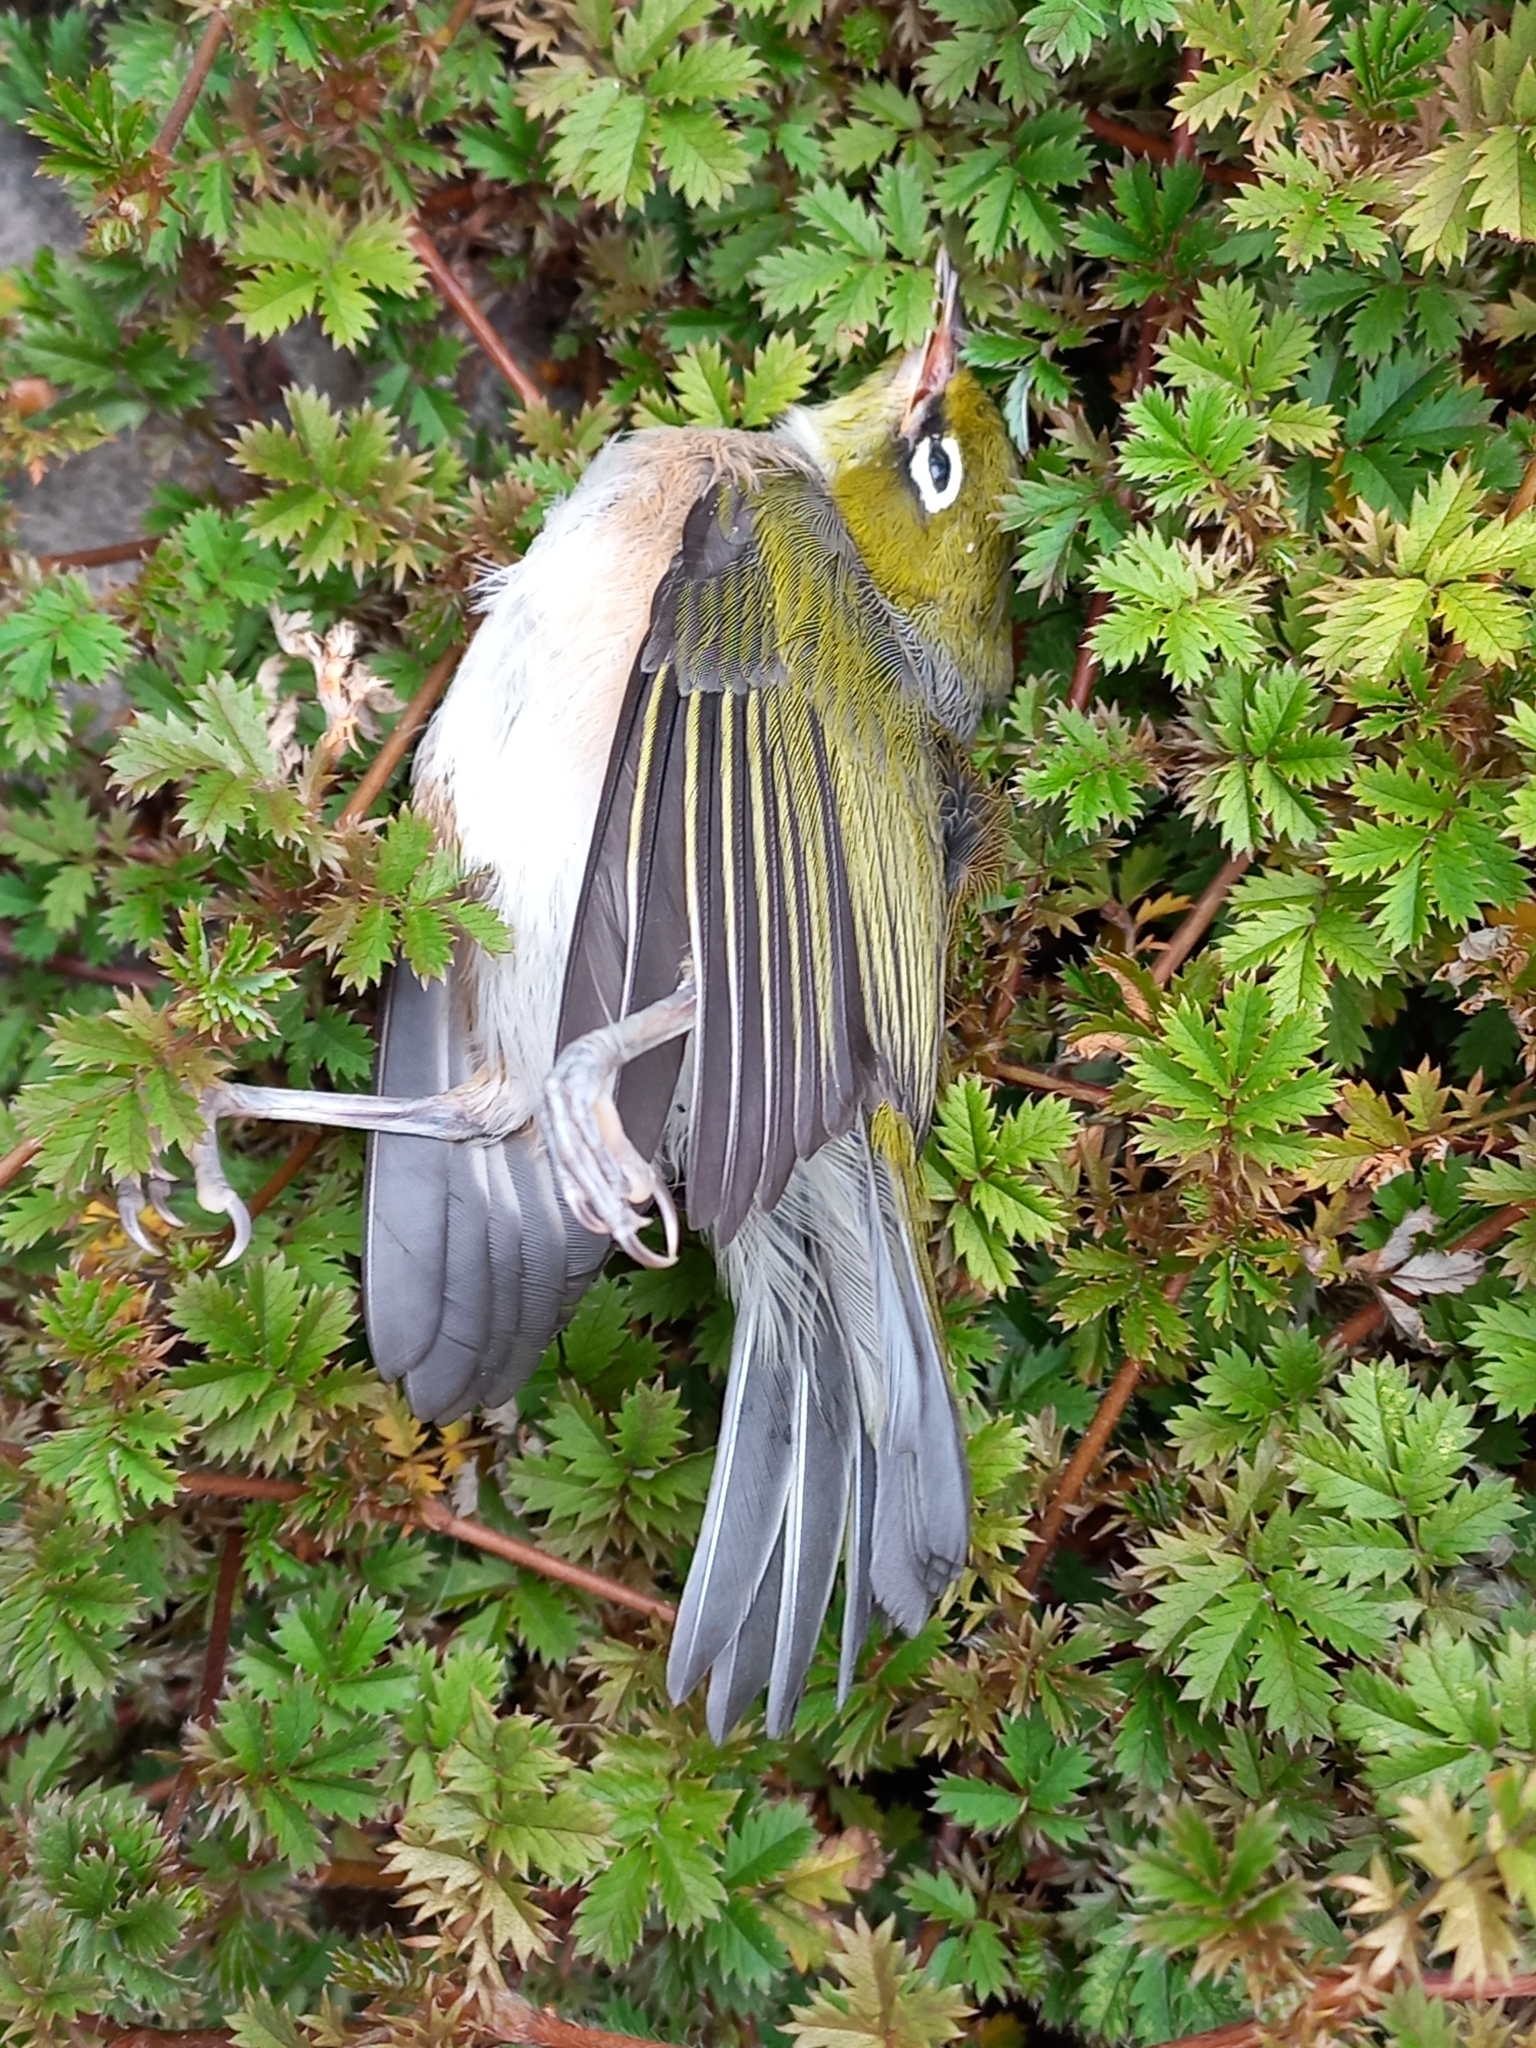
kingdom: Animalia
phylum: Chordata
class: Aves
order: Passeriformes
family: Zosteropidae
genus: Zosterops
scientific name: Zosterops lateralis
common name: Silvereye
